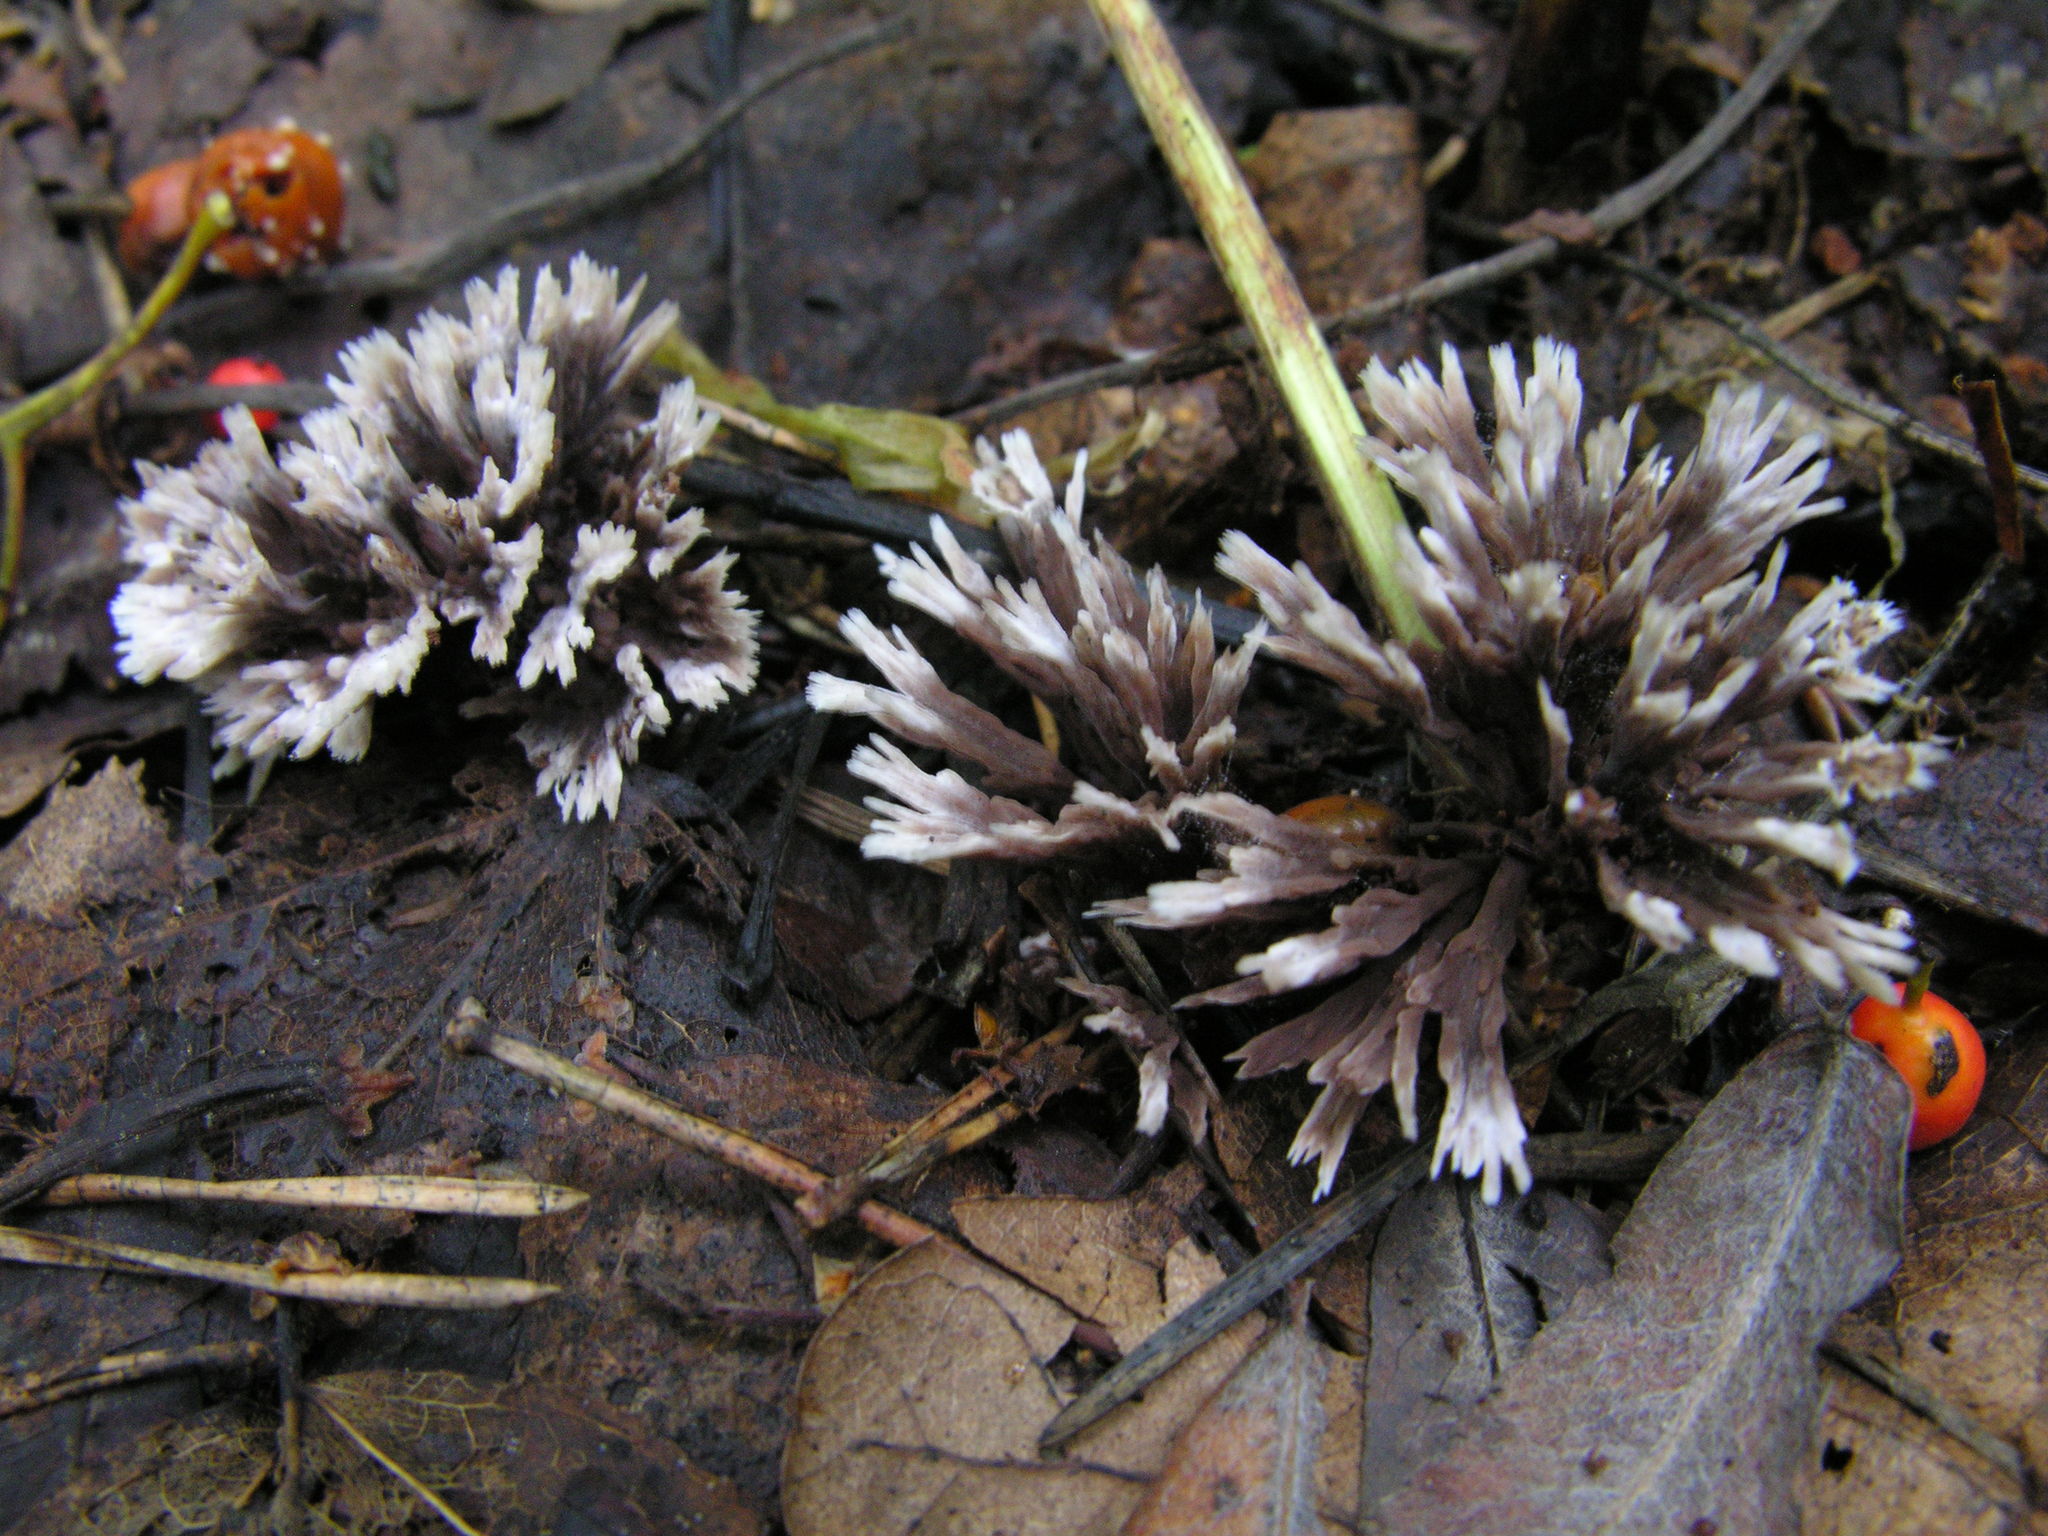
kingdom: Fungi
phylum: Basidiomycota
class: Agaricomycetes
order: Thelephorales
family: Thelephoraceae
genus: Thelephora
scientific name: Thelephora penicillata
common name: Urchin earthfan
